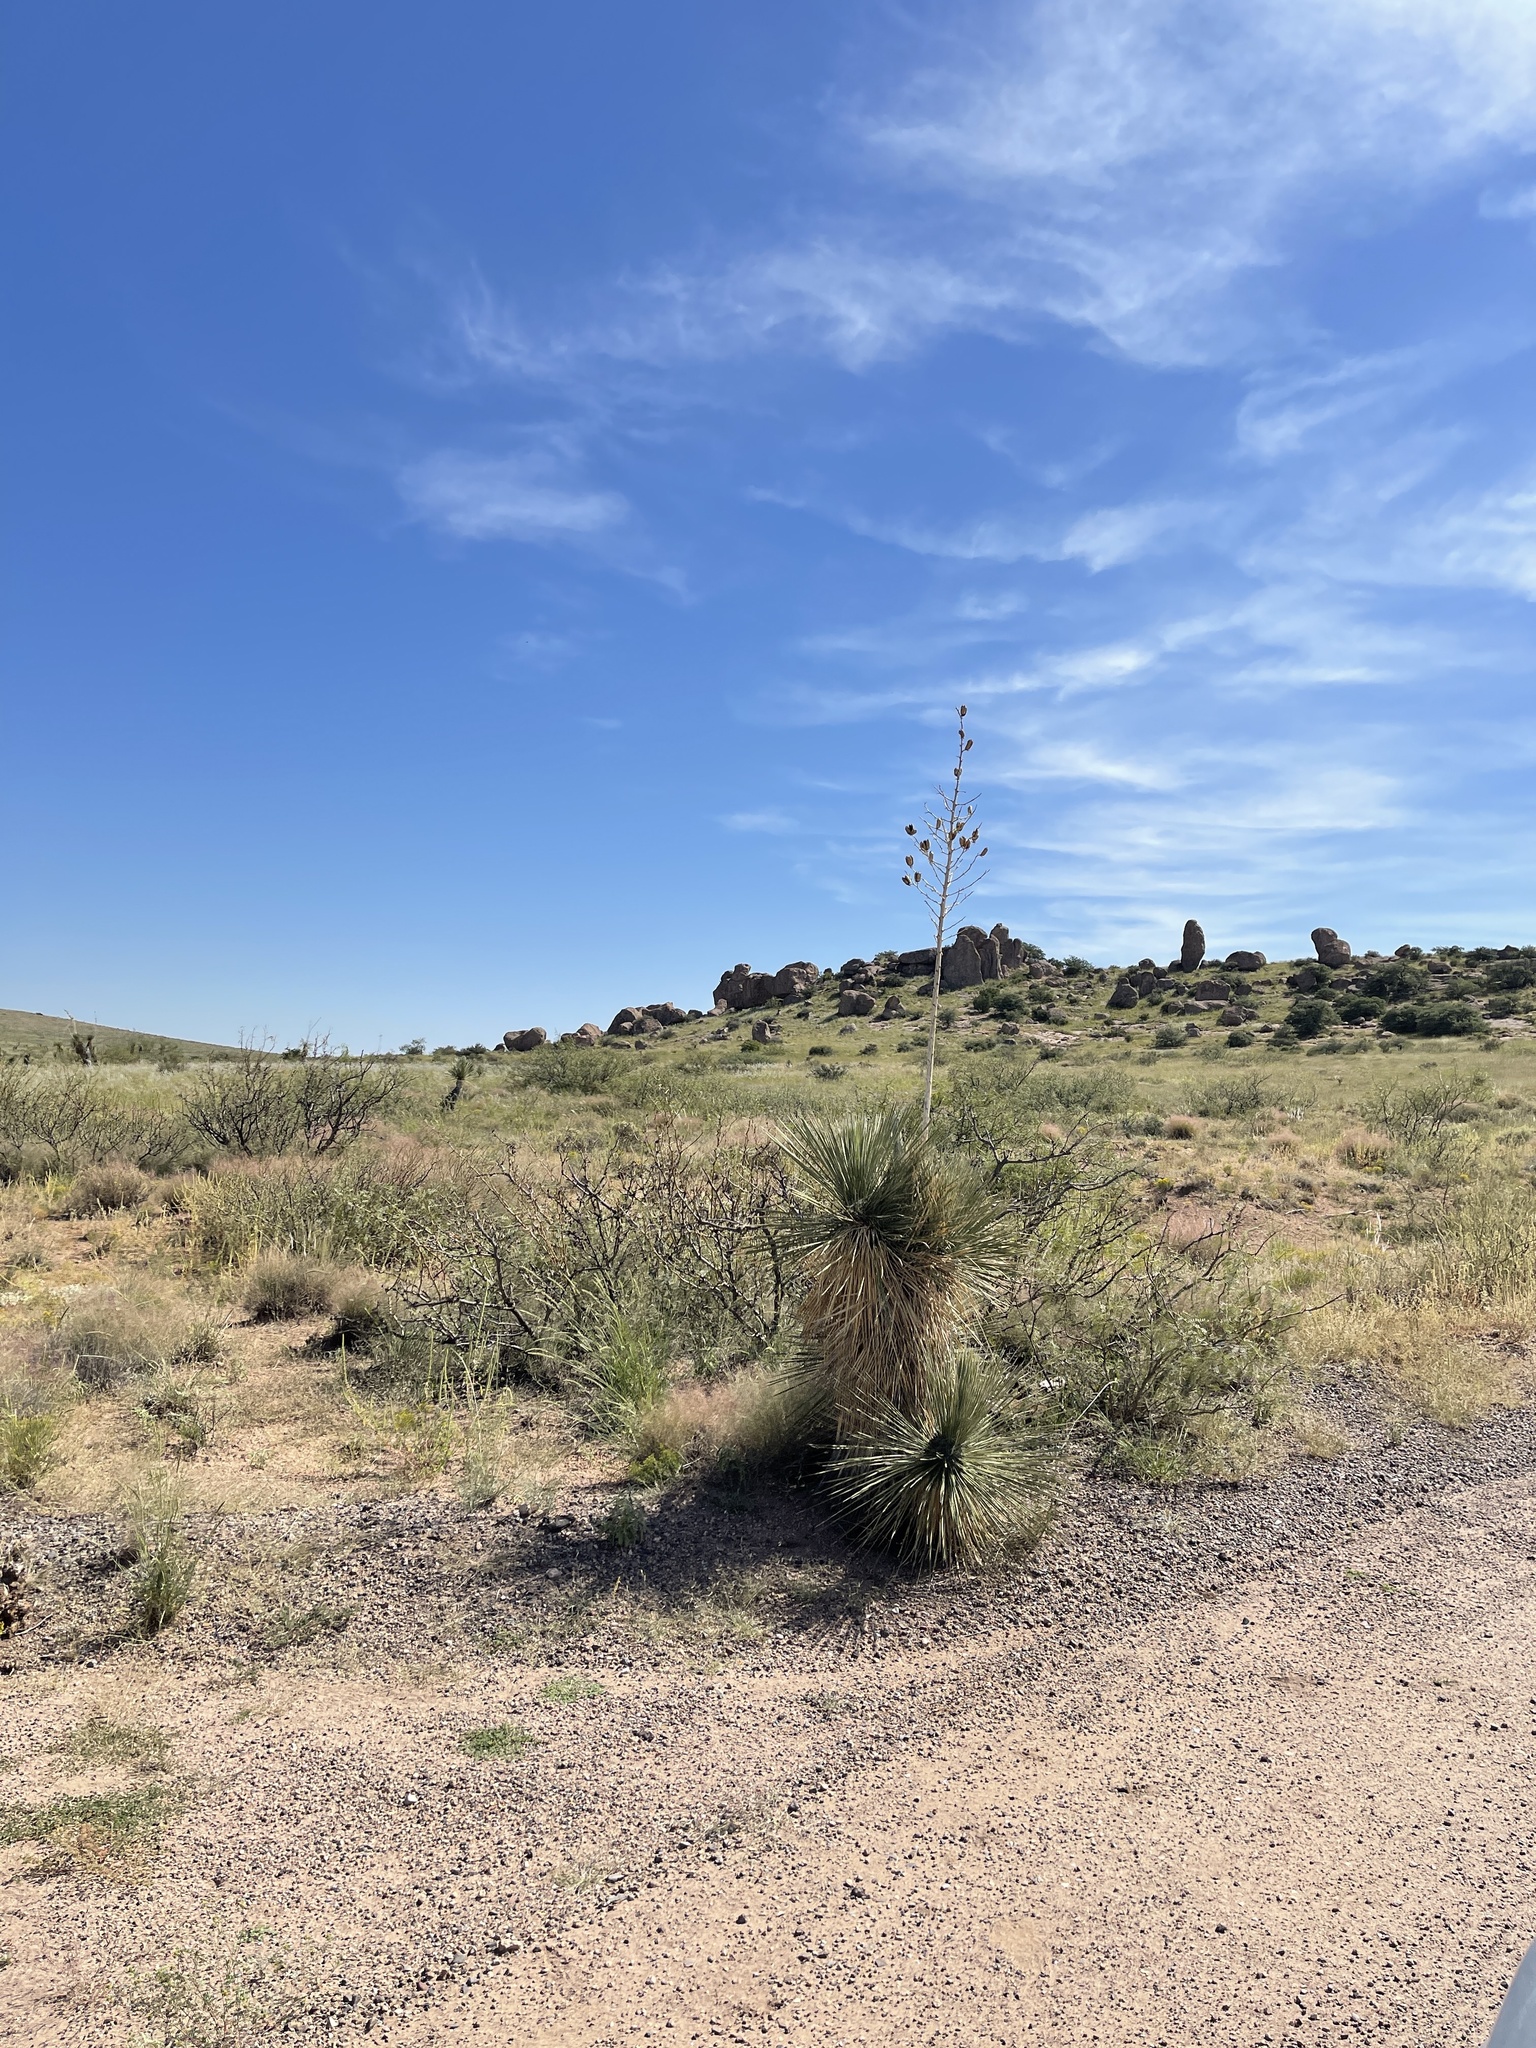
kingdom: Plantae
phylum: Tracheophyta
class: Liliopsida
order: Asparagales
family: Asparagaceae
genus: Yucca
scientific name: Yucca elata
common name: Palmella
